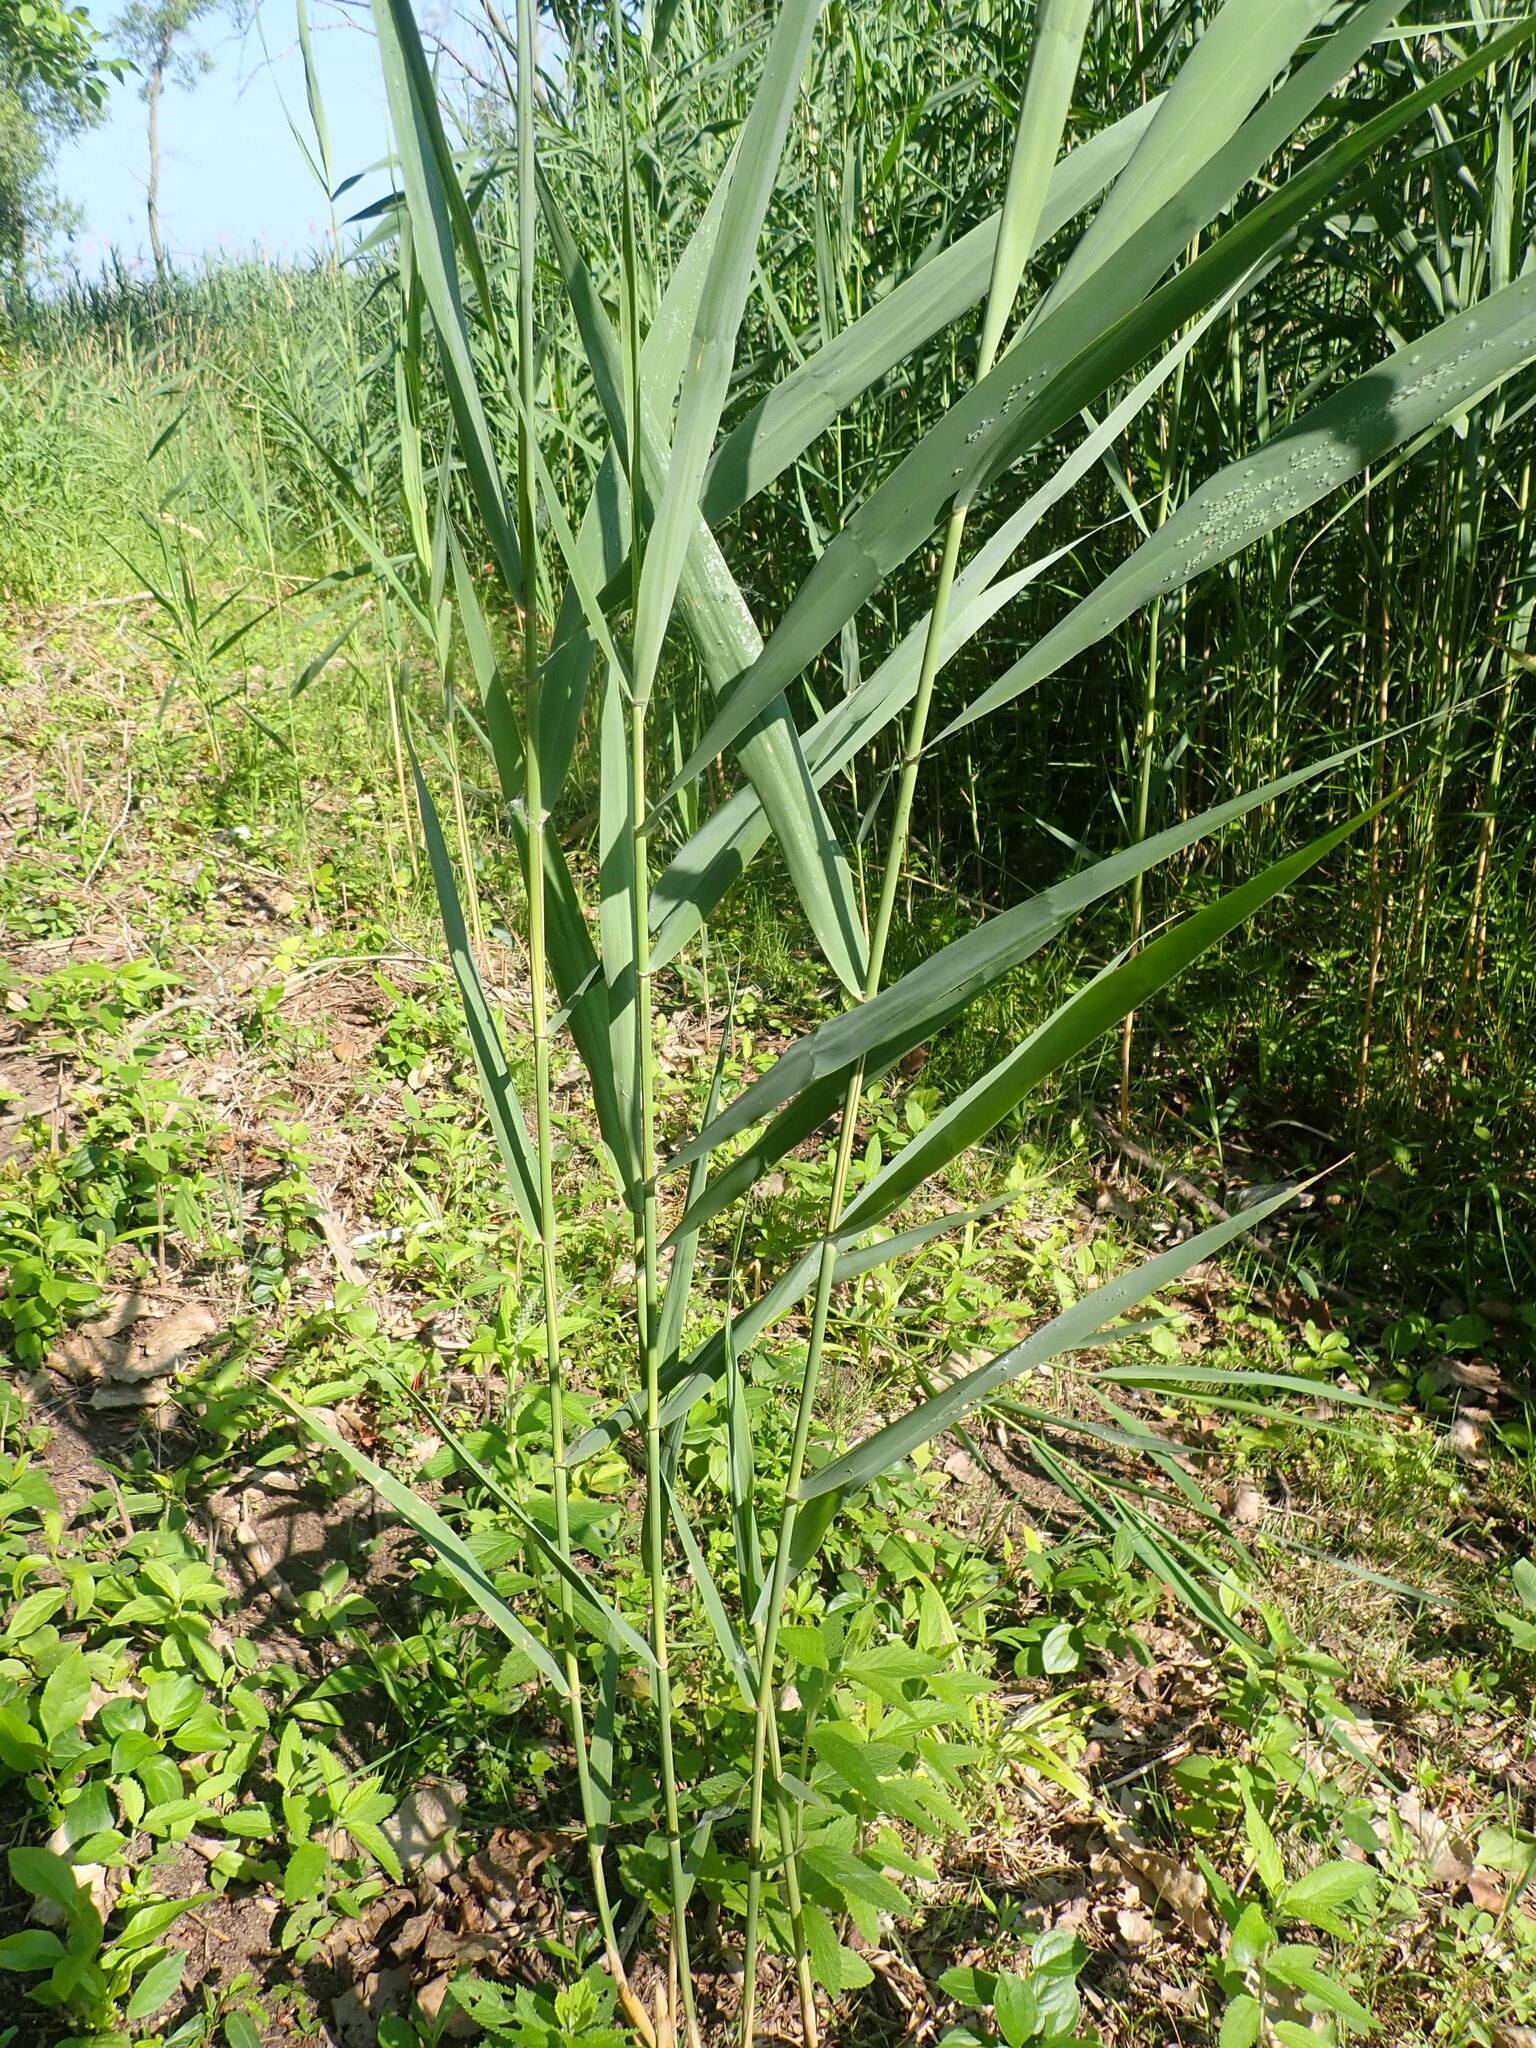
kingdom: Plantae
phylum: Tracheophyta
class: Liliopsida
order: Poales
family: Poaceae
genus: Phragmites
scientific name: Phragmites australis
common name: Common reed
